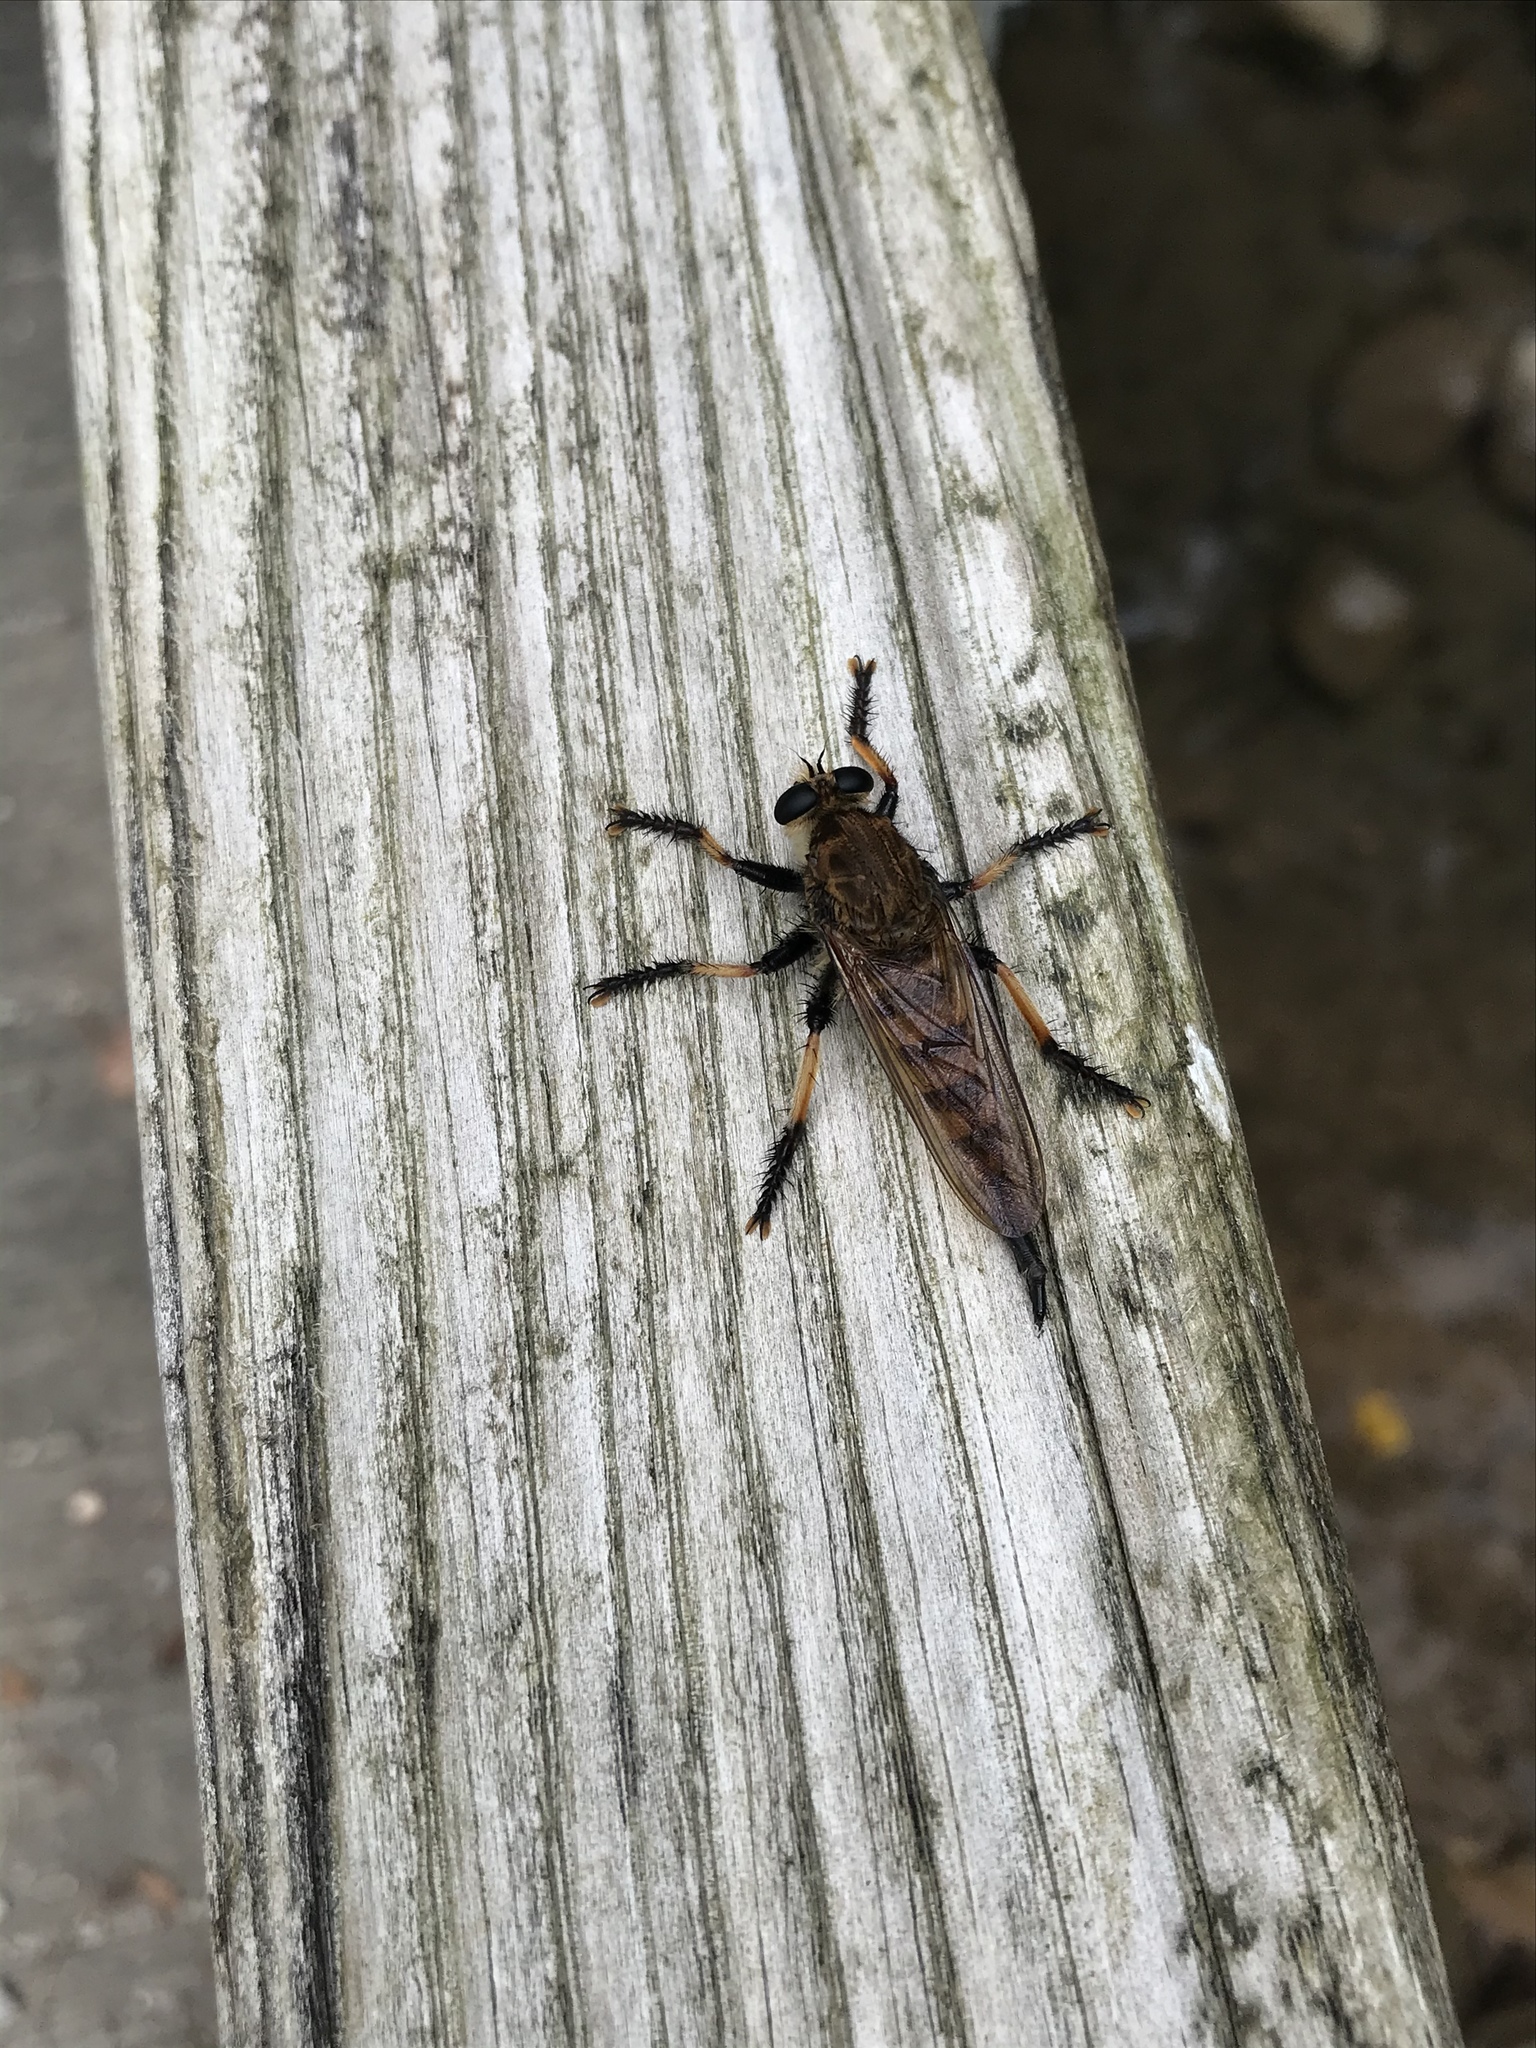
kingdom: Animalia
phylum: Arthropoda
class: Insecta
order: Diptera
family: Asilidae
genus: Promachus
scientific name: Promachus rufipes
